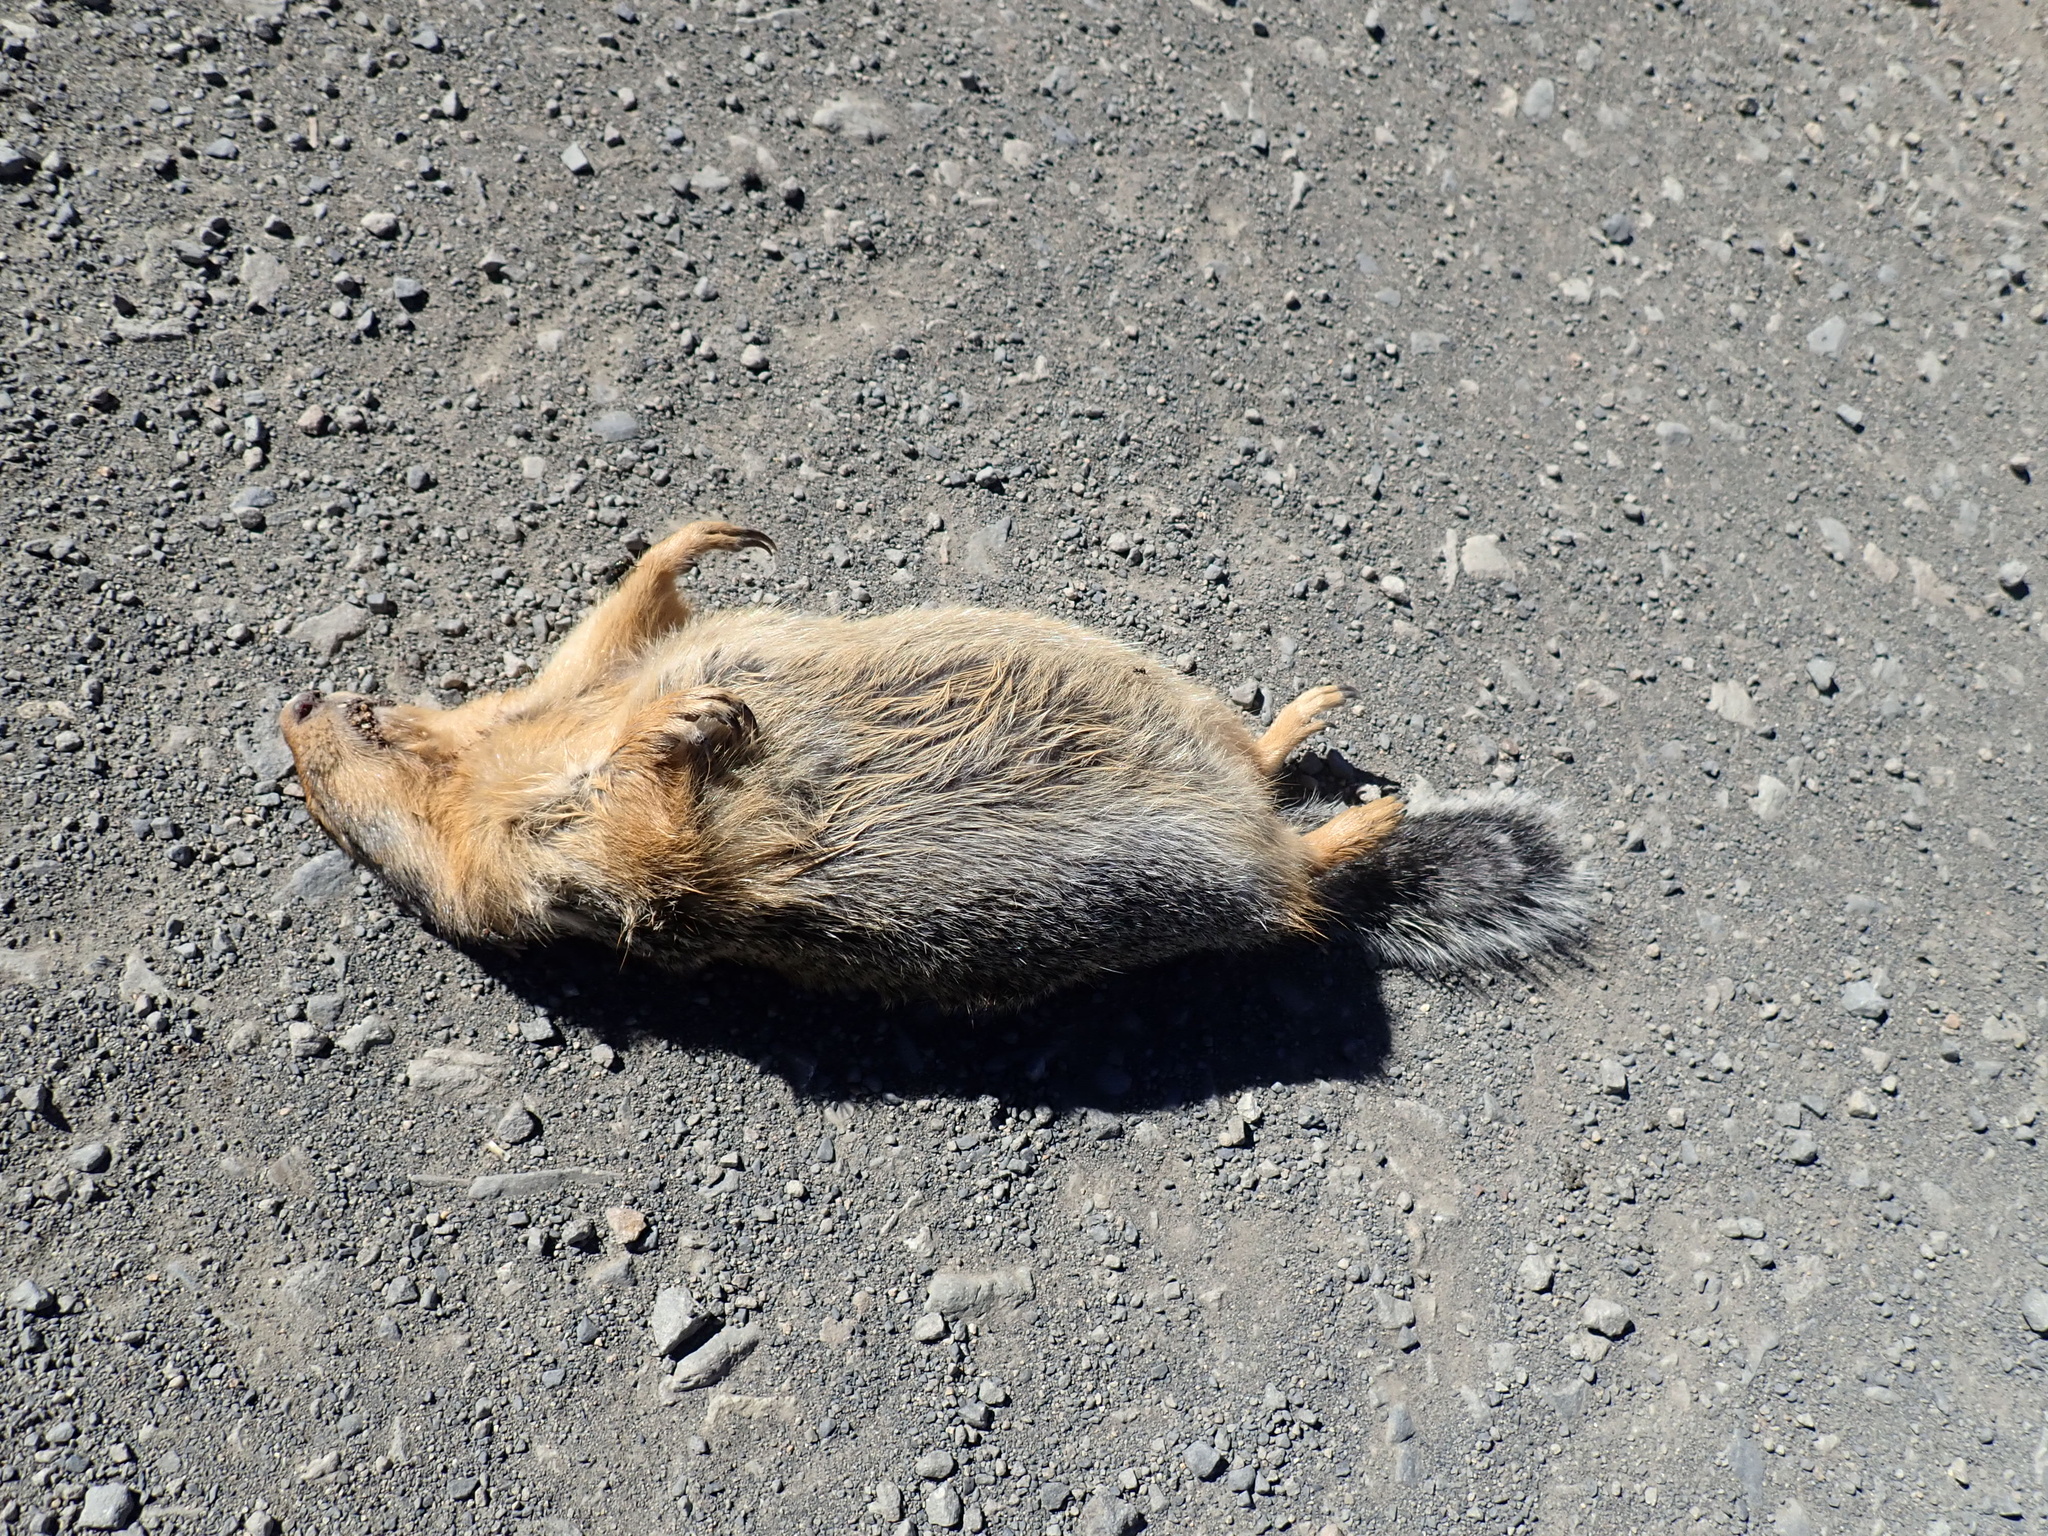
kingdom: Animalia
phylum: Chordata
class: Mammalia
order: Rodentia
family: Sciuridae
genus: Urocitellus
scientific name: Urocitellus columbianus
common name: Columbian ground squirrel
